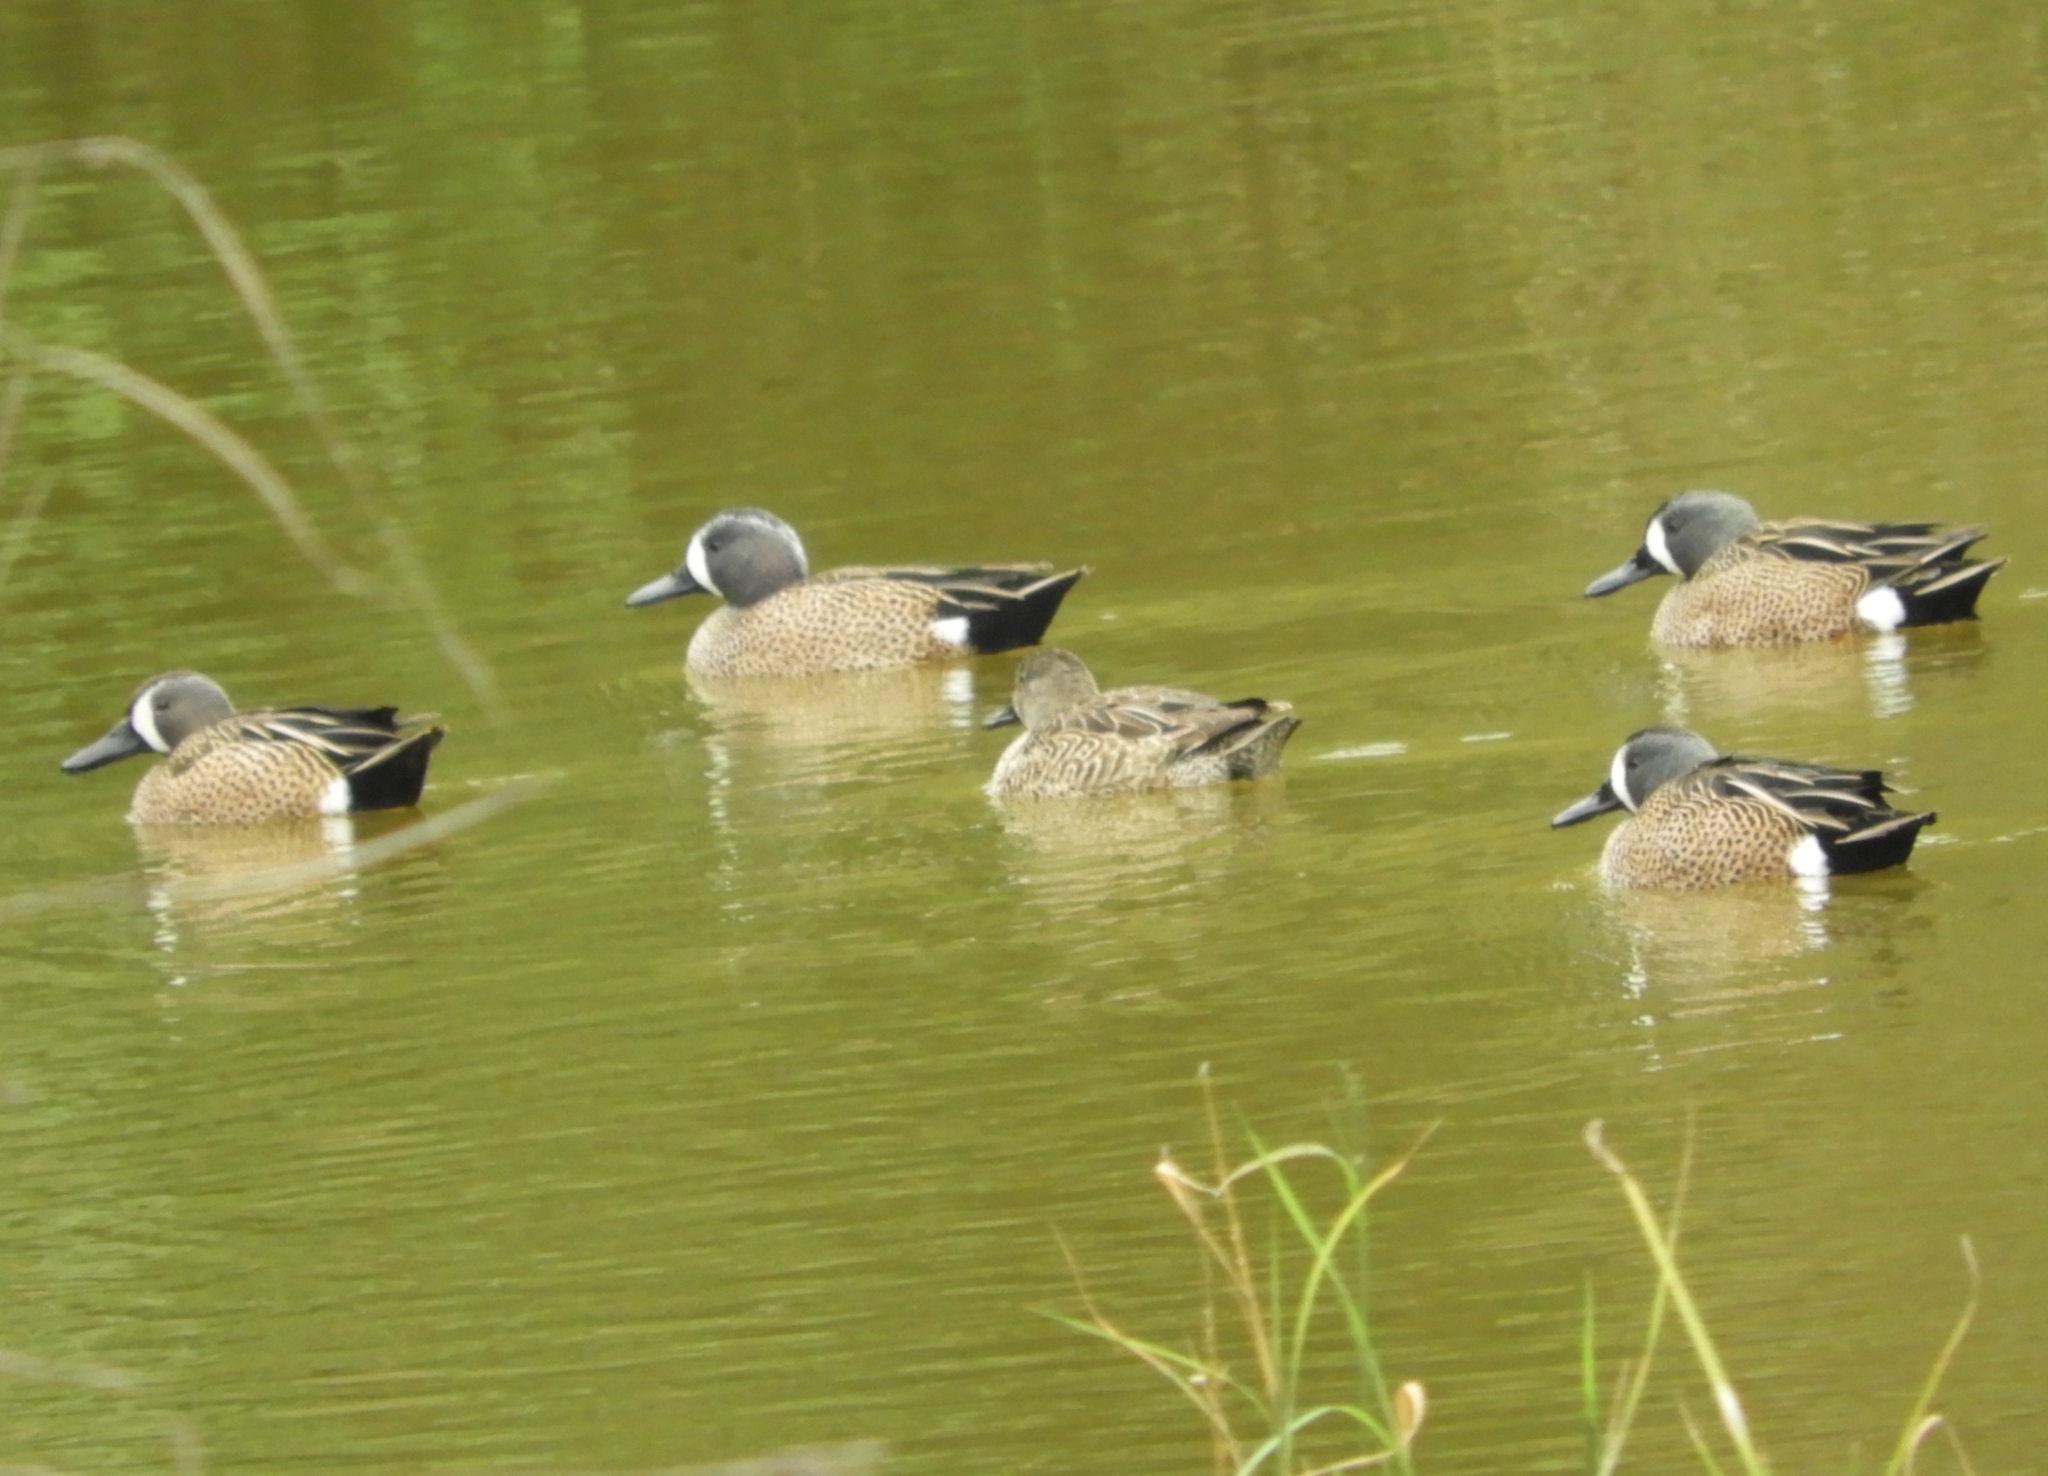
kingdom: Animalia
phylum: Chordata
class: Aves
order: Anseriformes
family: Anatidae
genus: Spatula
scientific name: Spatula discors
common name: Blue-winged teal
